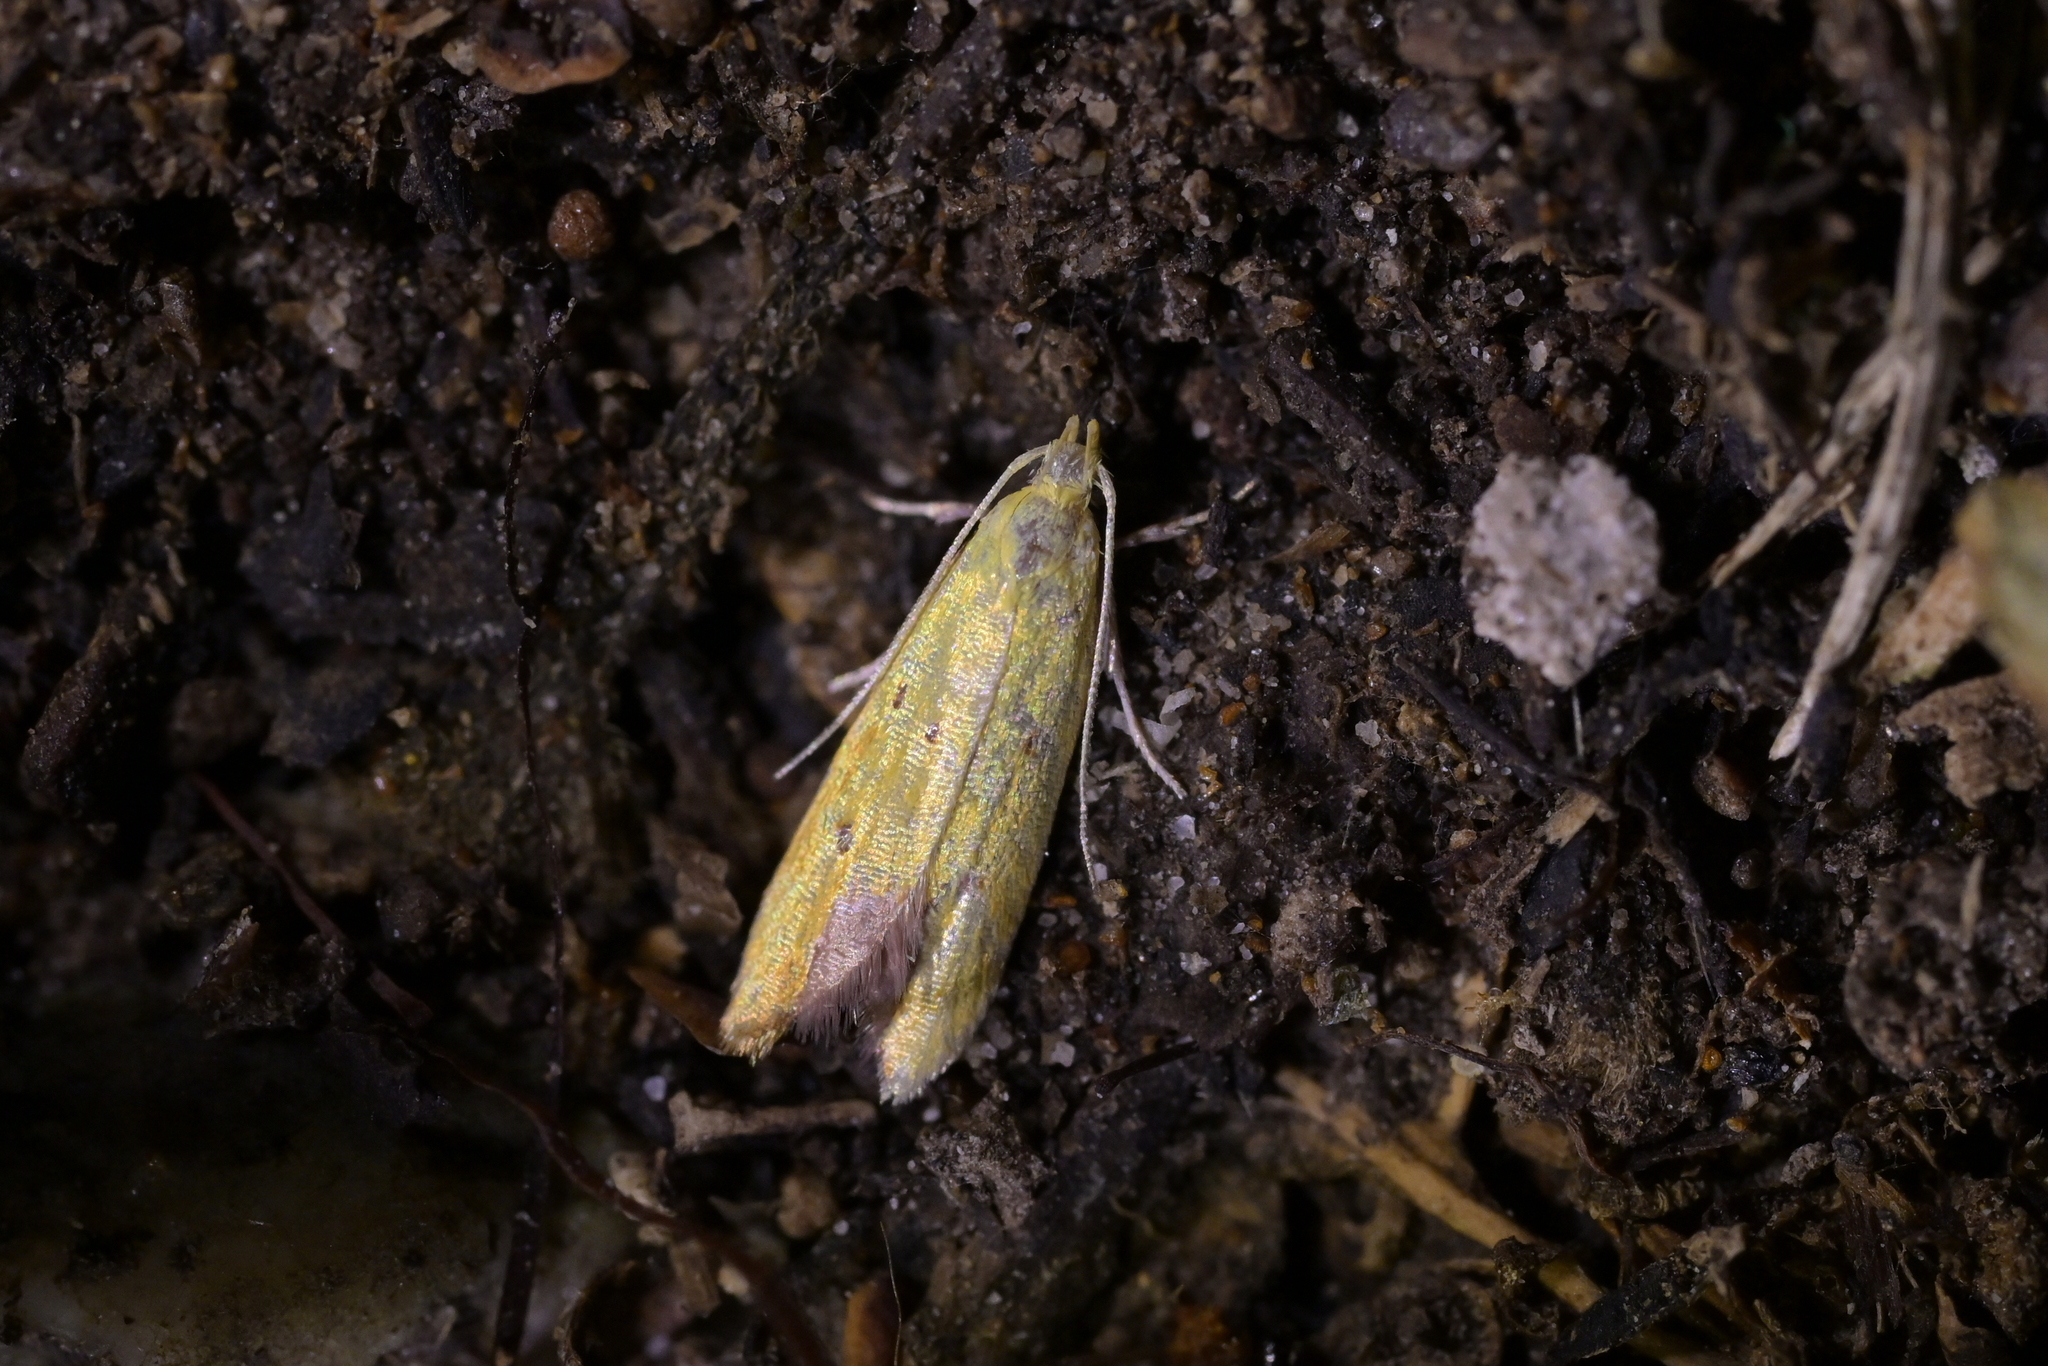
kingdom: Animalia
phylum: Arthropoda
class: Insecta
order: Lepidoptera
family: Oecophoridae
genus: Gymnobathra
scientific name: Gymnobathra
